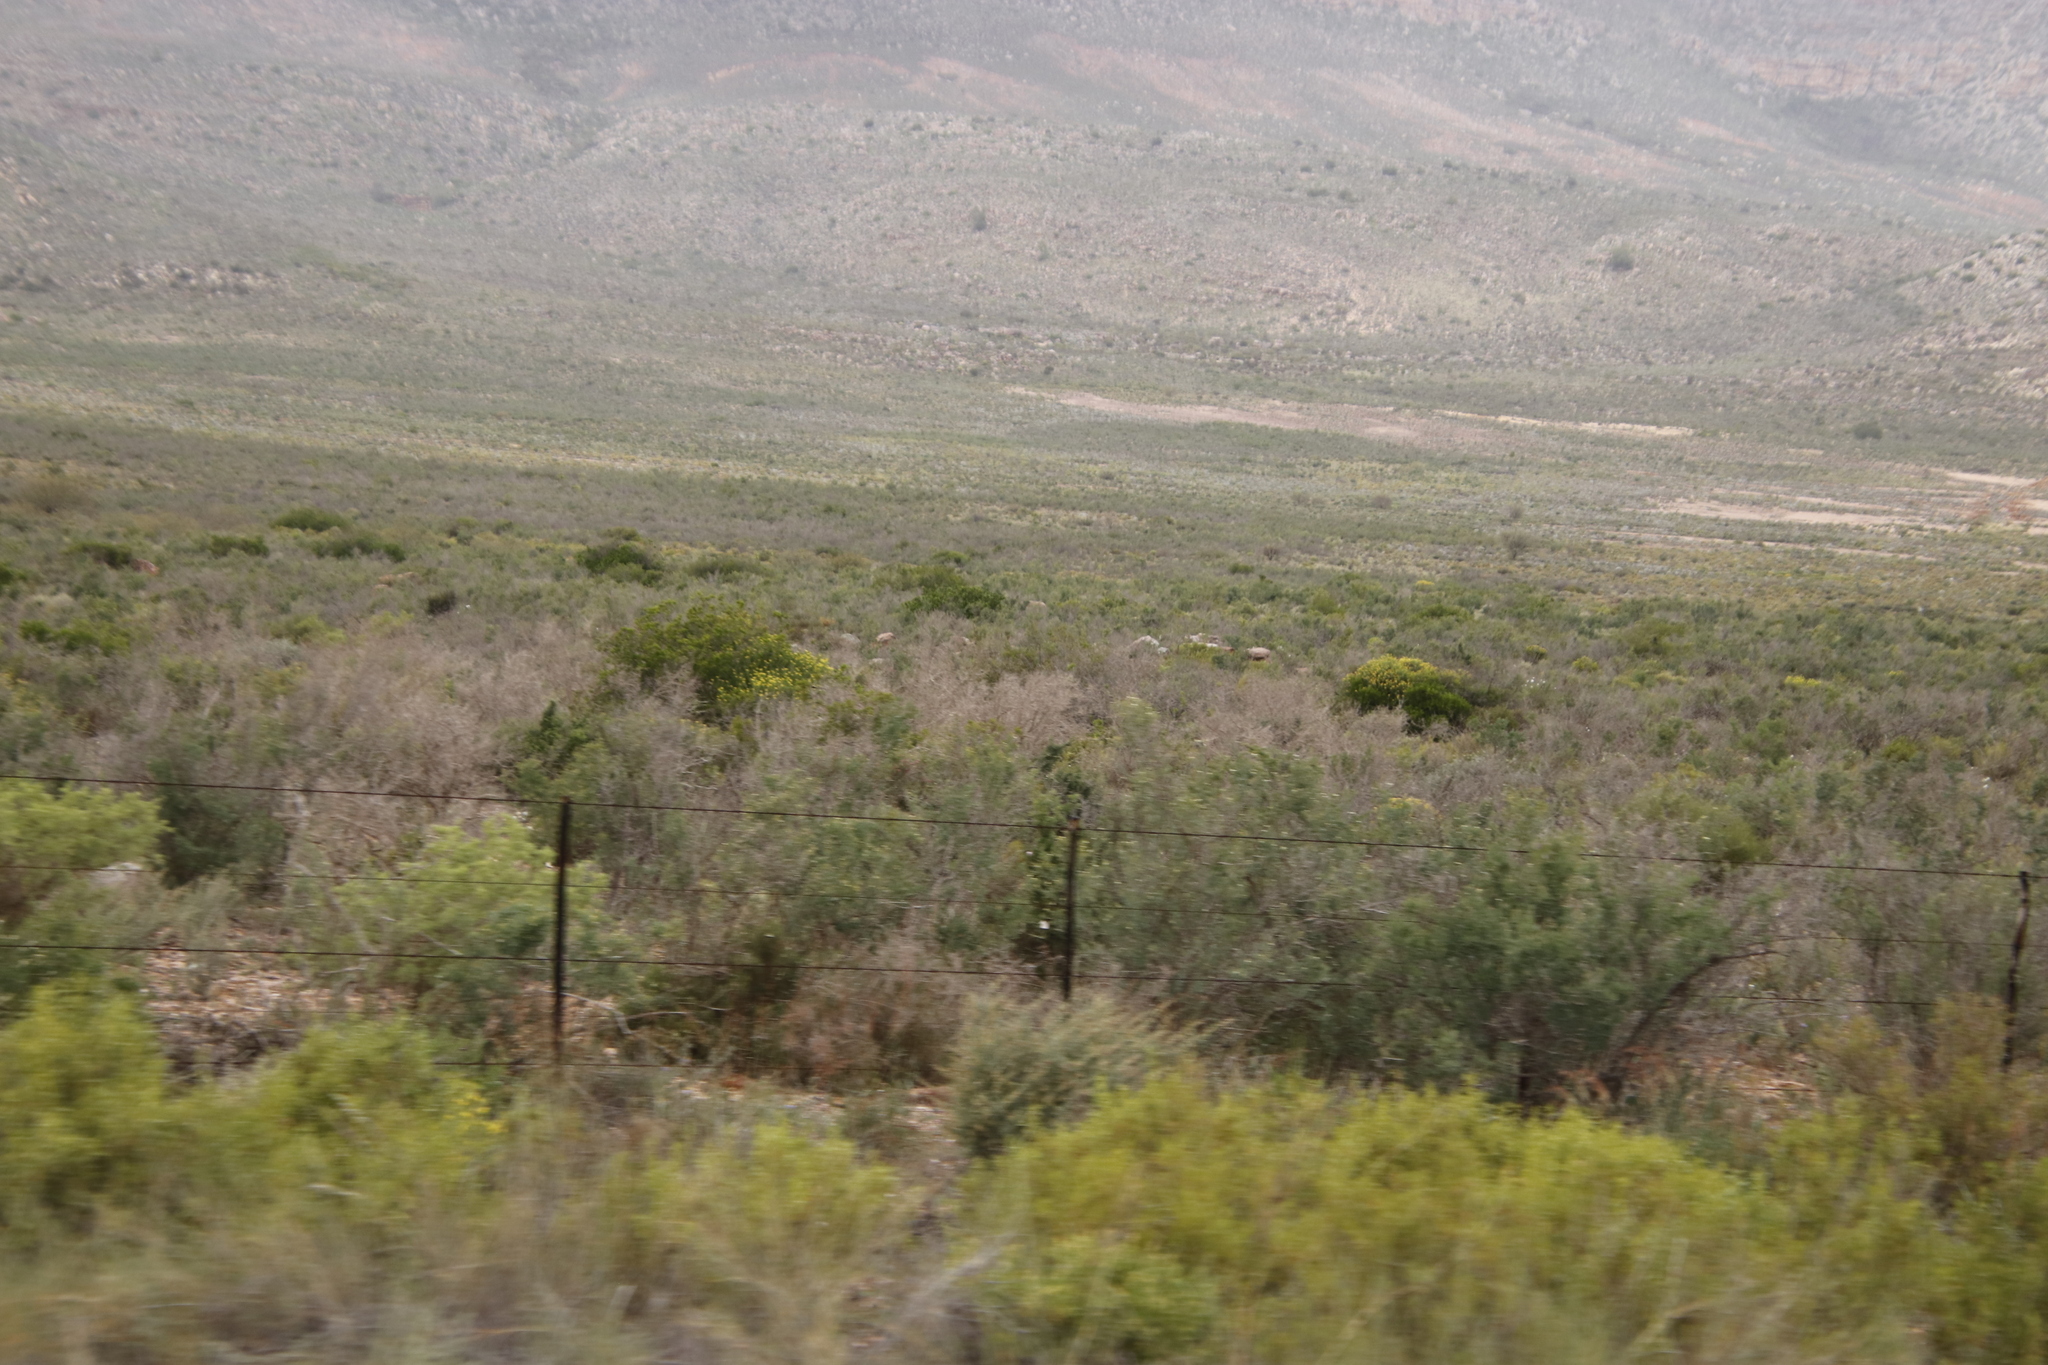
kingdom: Plantae
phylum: Tracheophyta
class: Magnoliopsida
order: Solanales
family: Montiniaceae
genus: Montinia
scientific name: Montinia caryophyllacea
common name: Wild clove-bush
